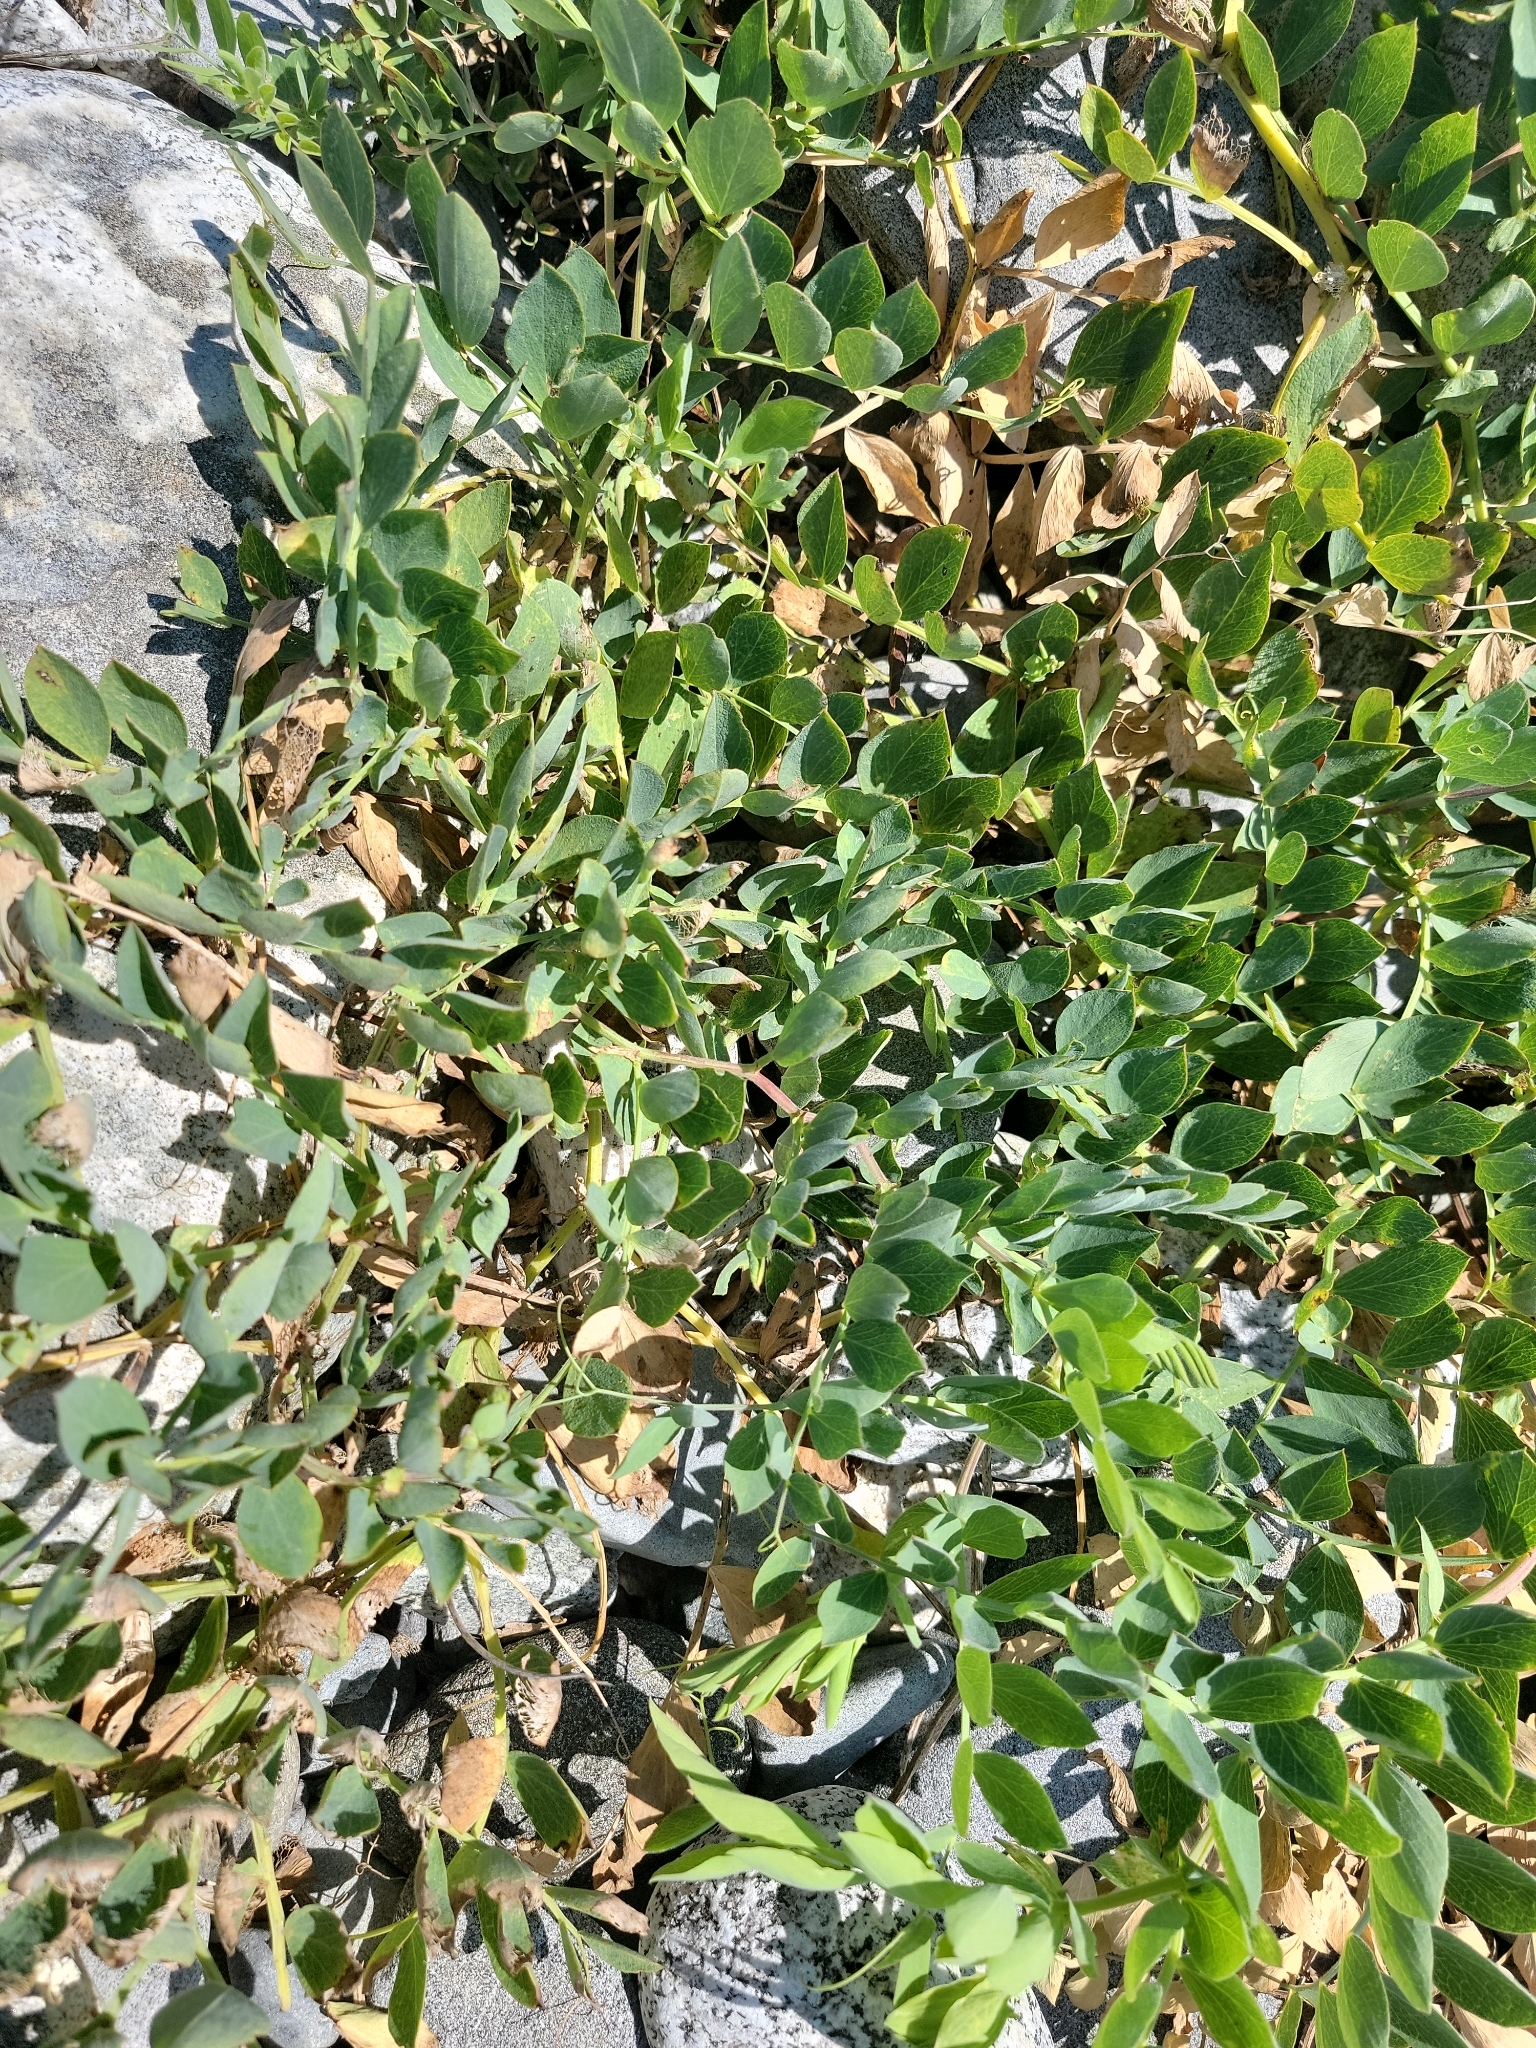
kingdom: Plantae
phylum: Tracheophyta
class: Magnoliopsida
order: Fabales
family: Fabaceae
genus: Lathyrus
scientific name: Lathyrus japonicus
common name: Sea pea
